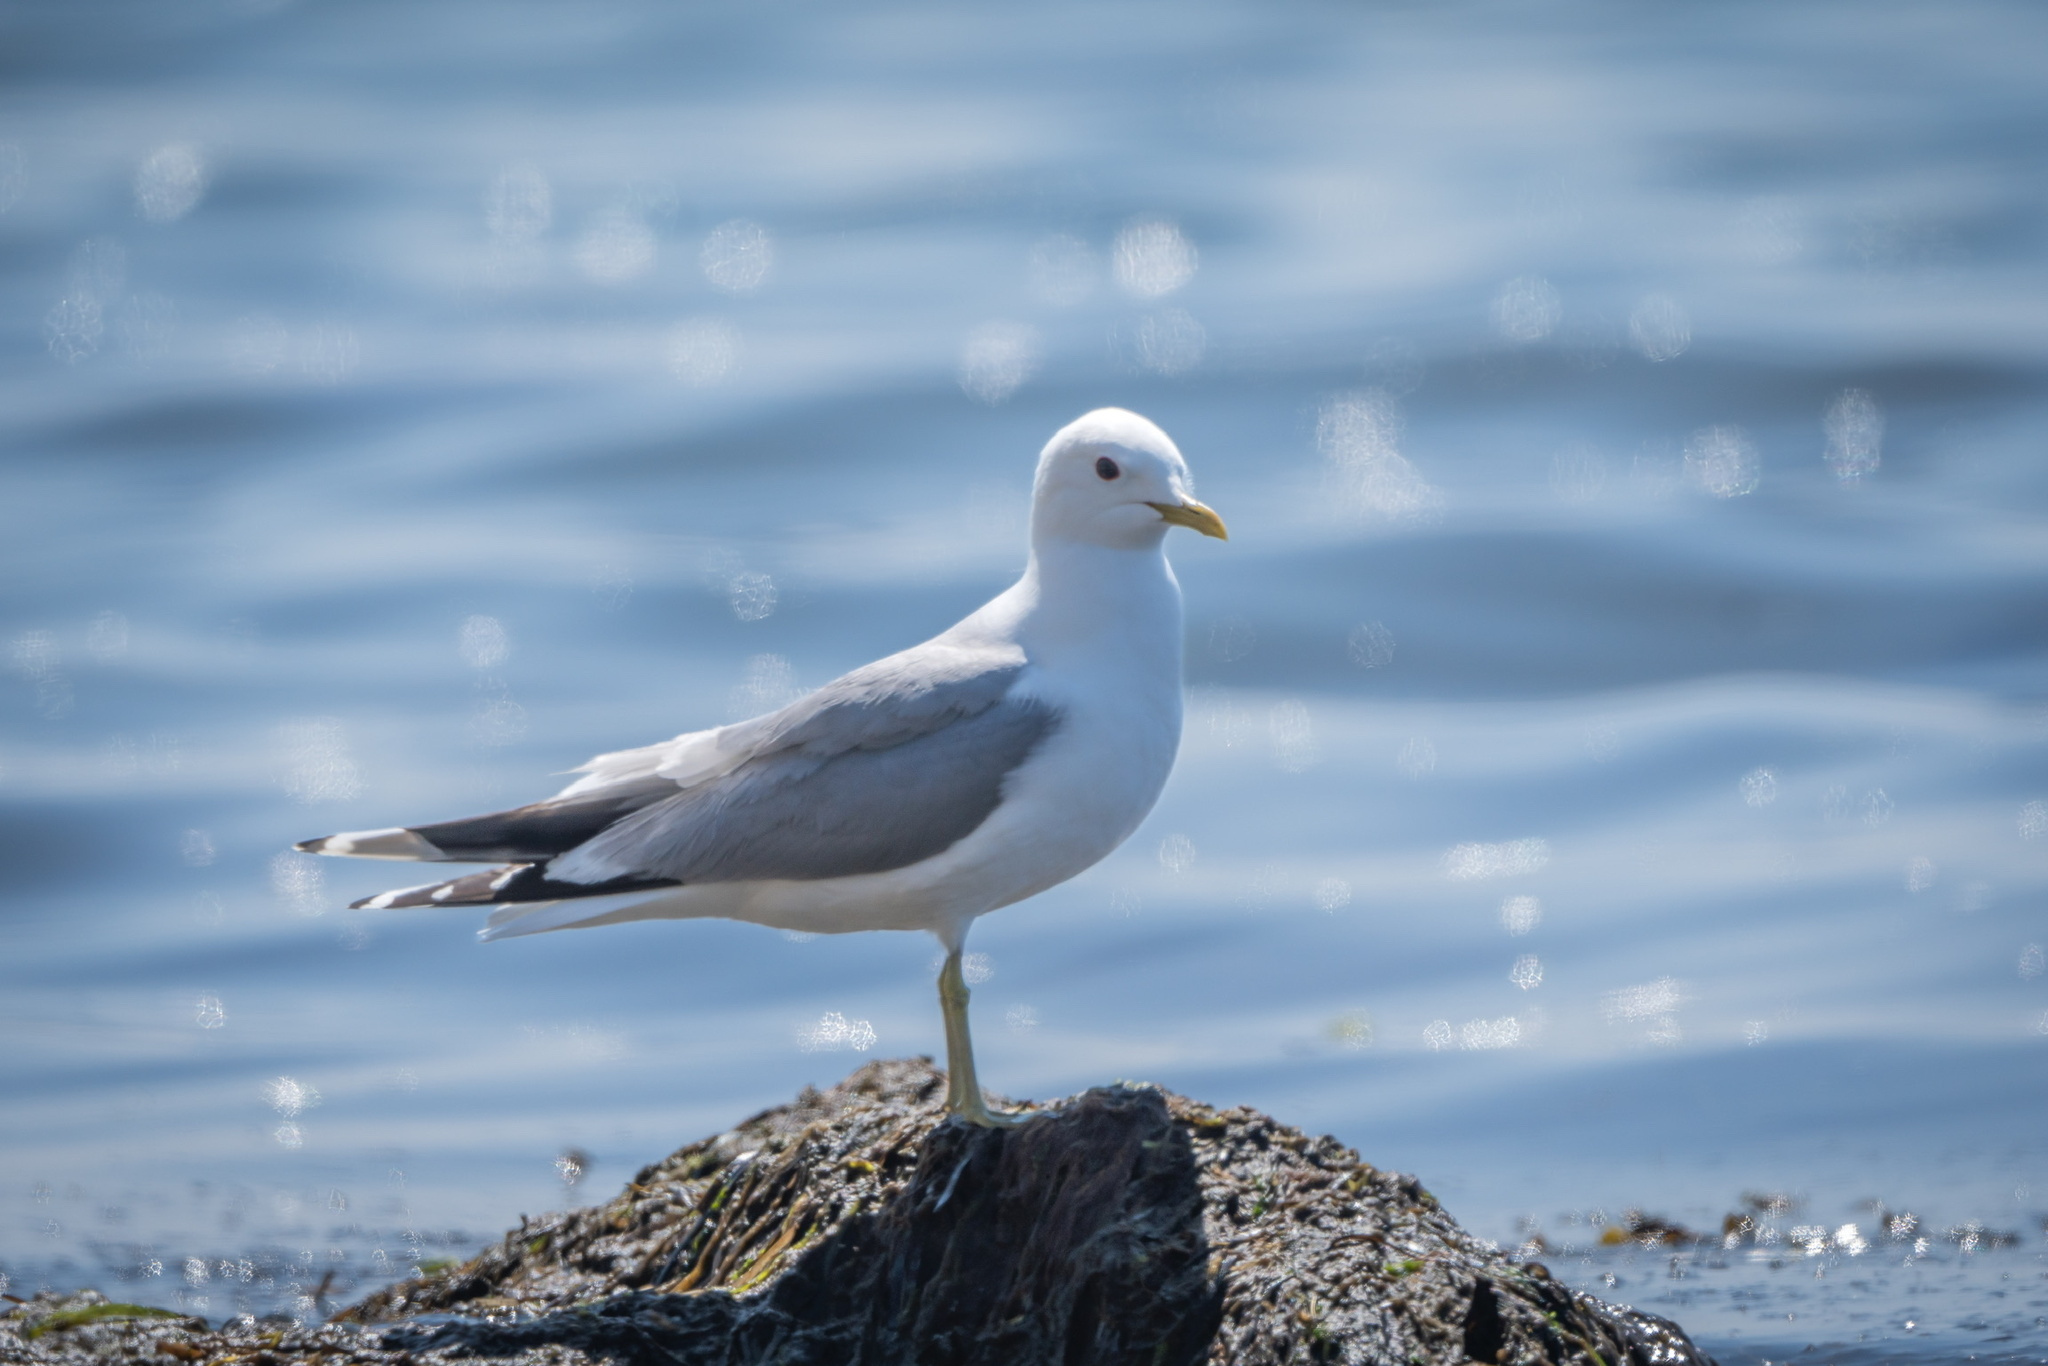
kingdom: Animalia
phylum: Chordata
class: Aves
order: Charadriiformes
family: Laridae
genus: Larus
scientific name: Larus canus
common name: Mew gull
